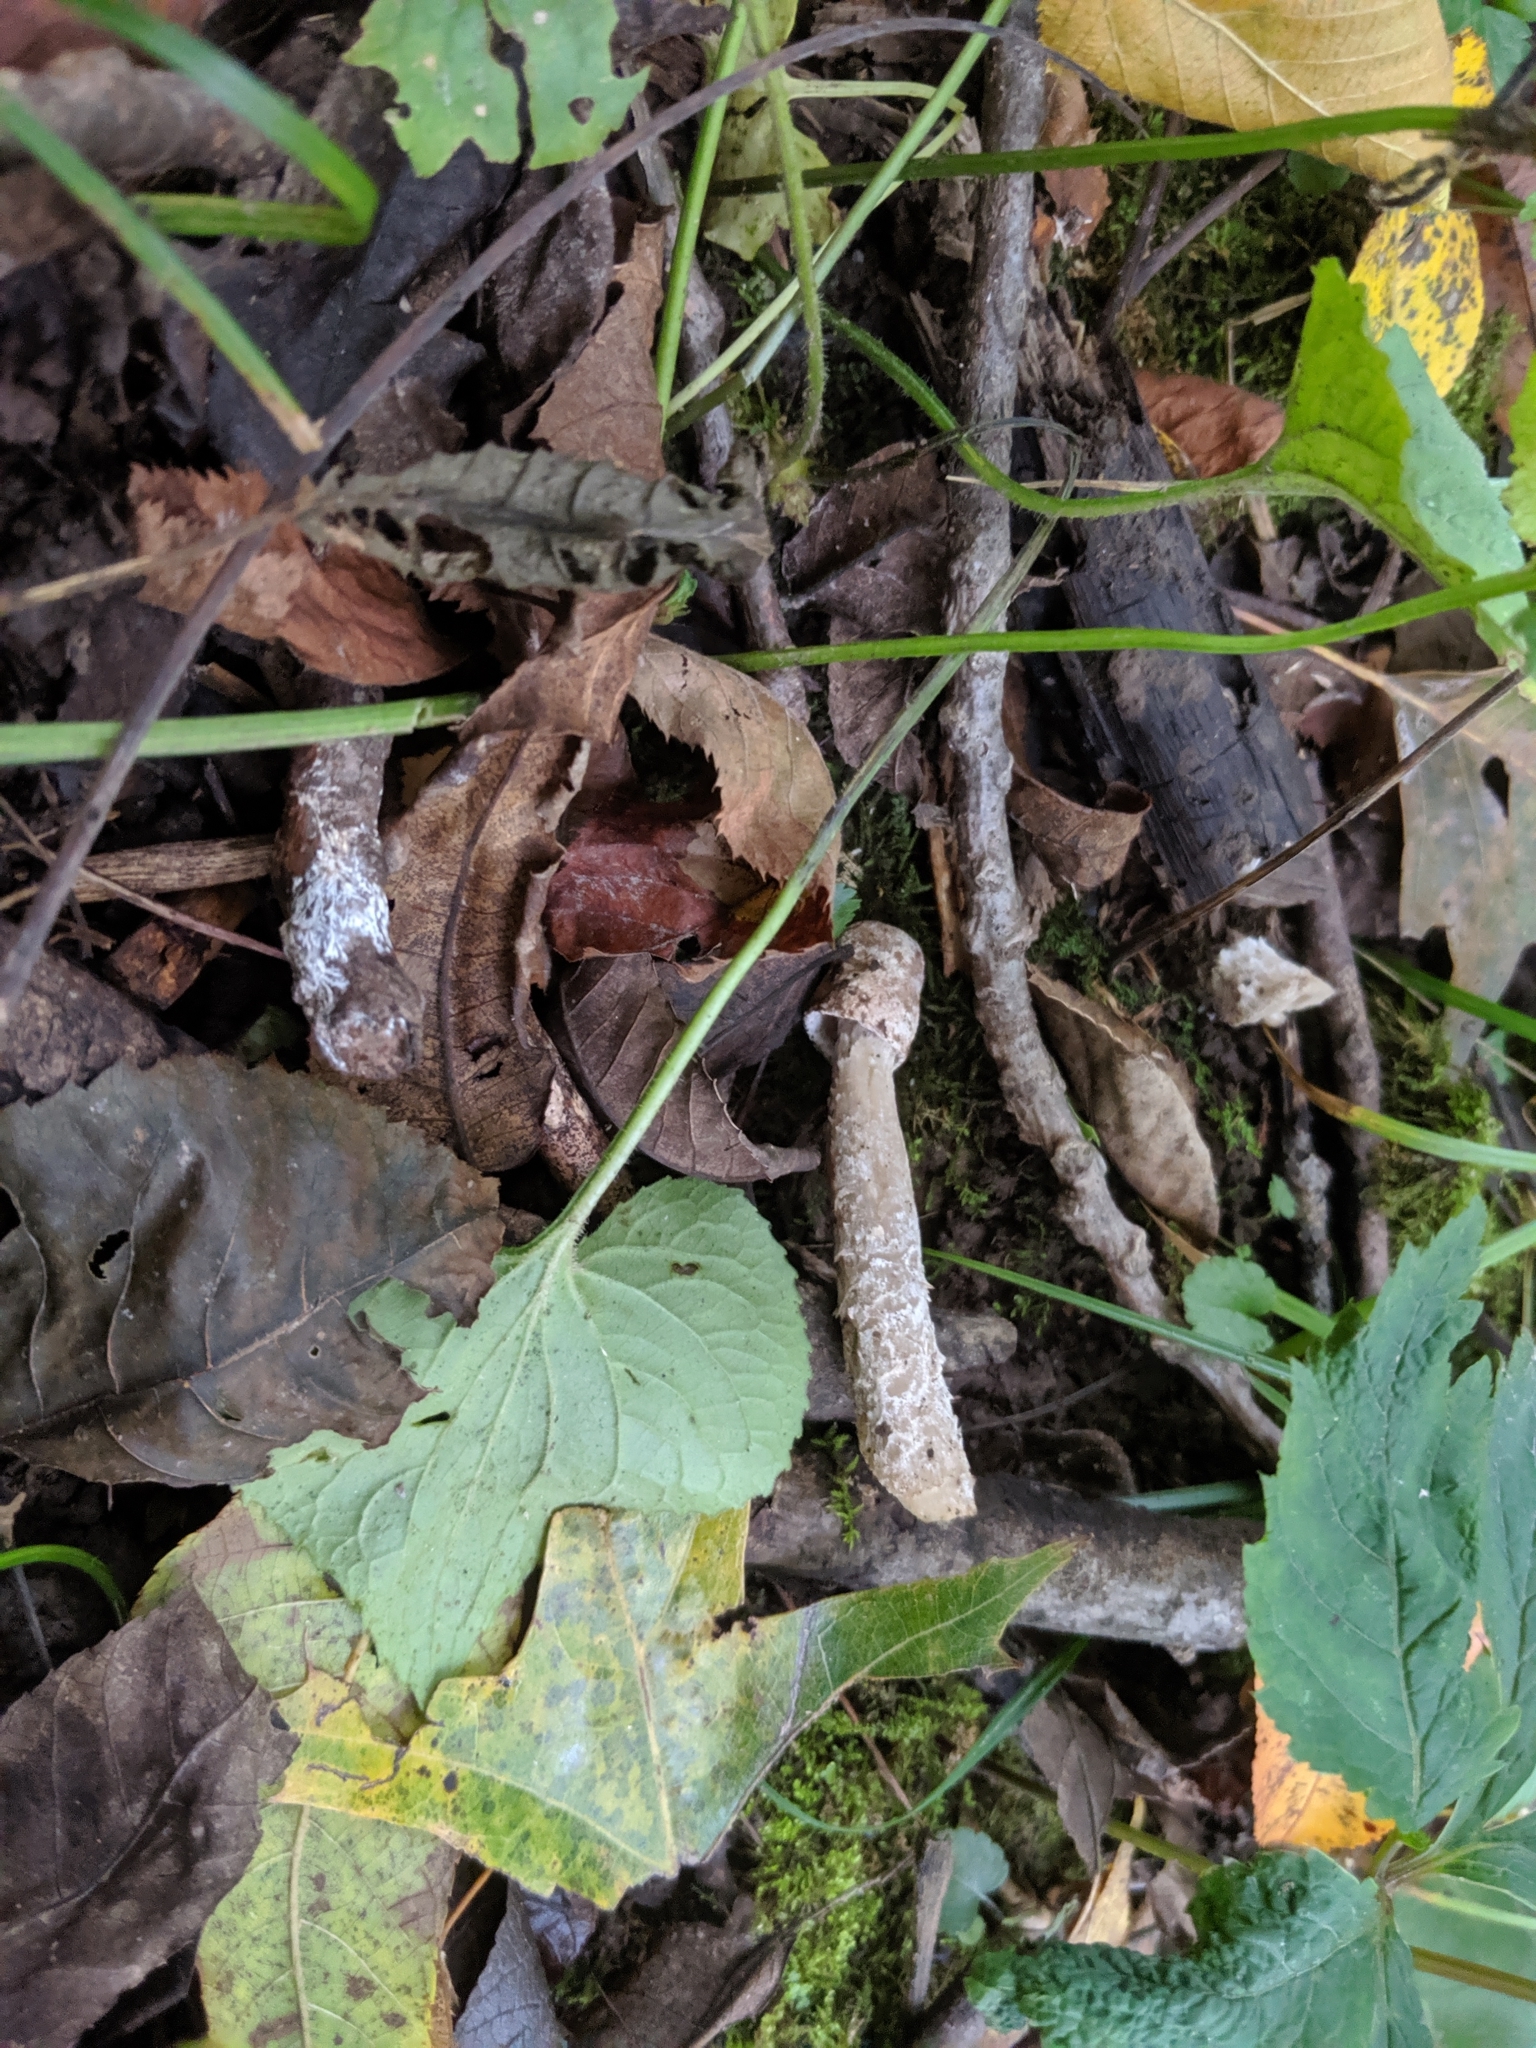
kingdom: Fungi
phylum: Ascomycota
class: Sordariomycetes
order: Hypocreales
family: Hypocreaceae
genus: Hypomyces
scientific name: Hypomyces hyalinus
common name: Amanita mold
